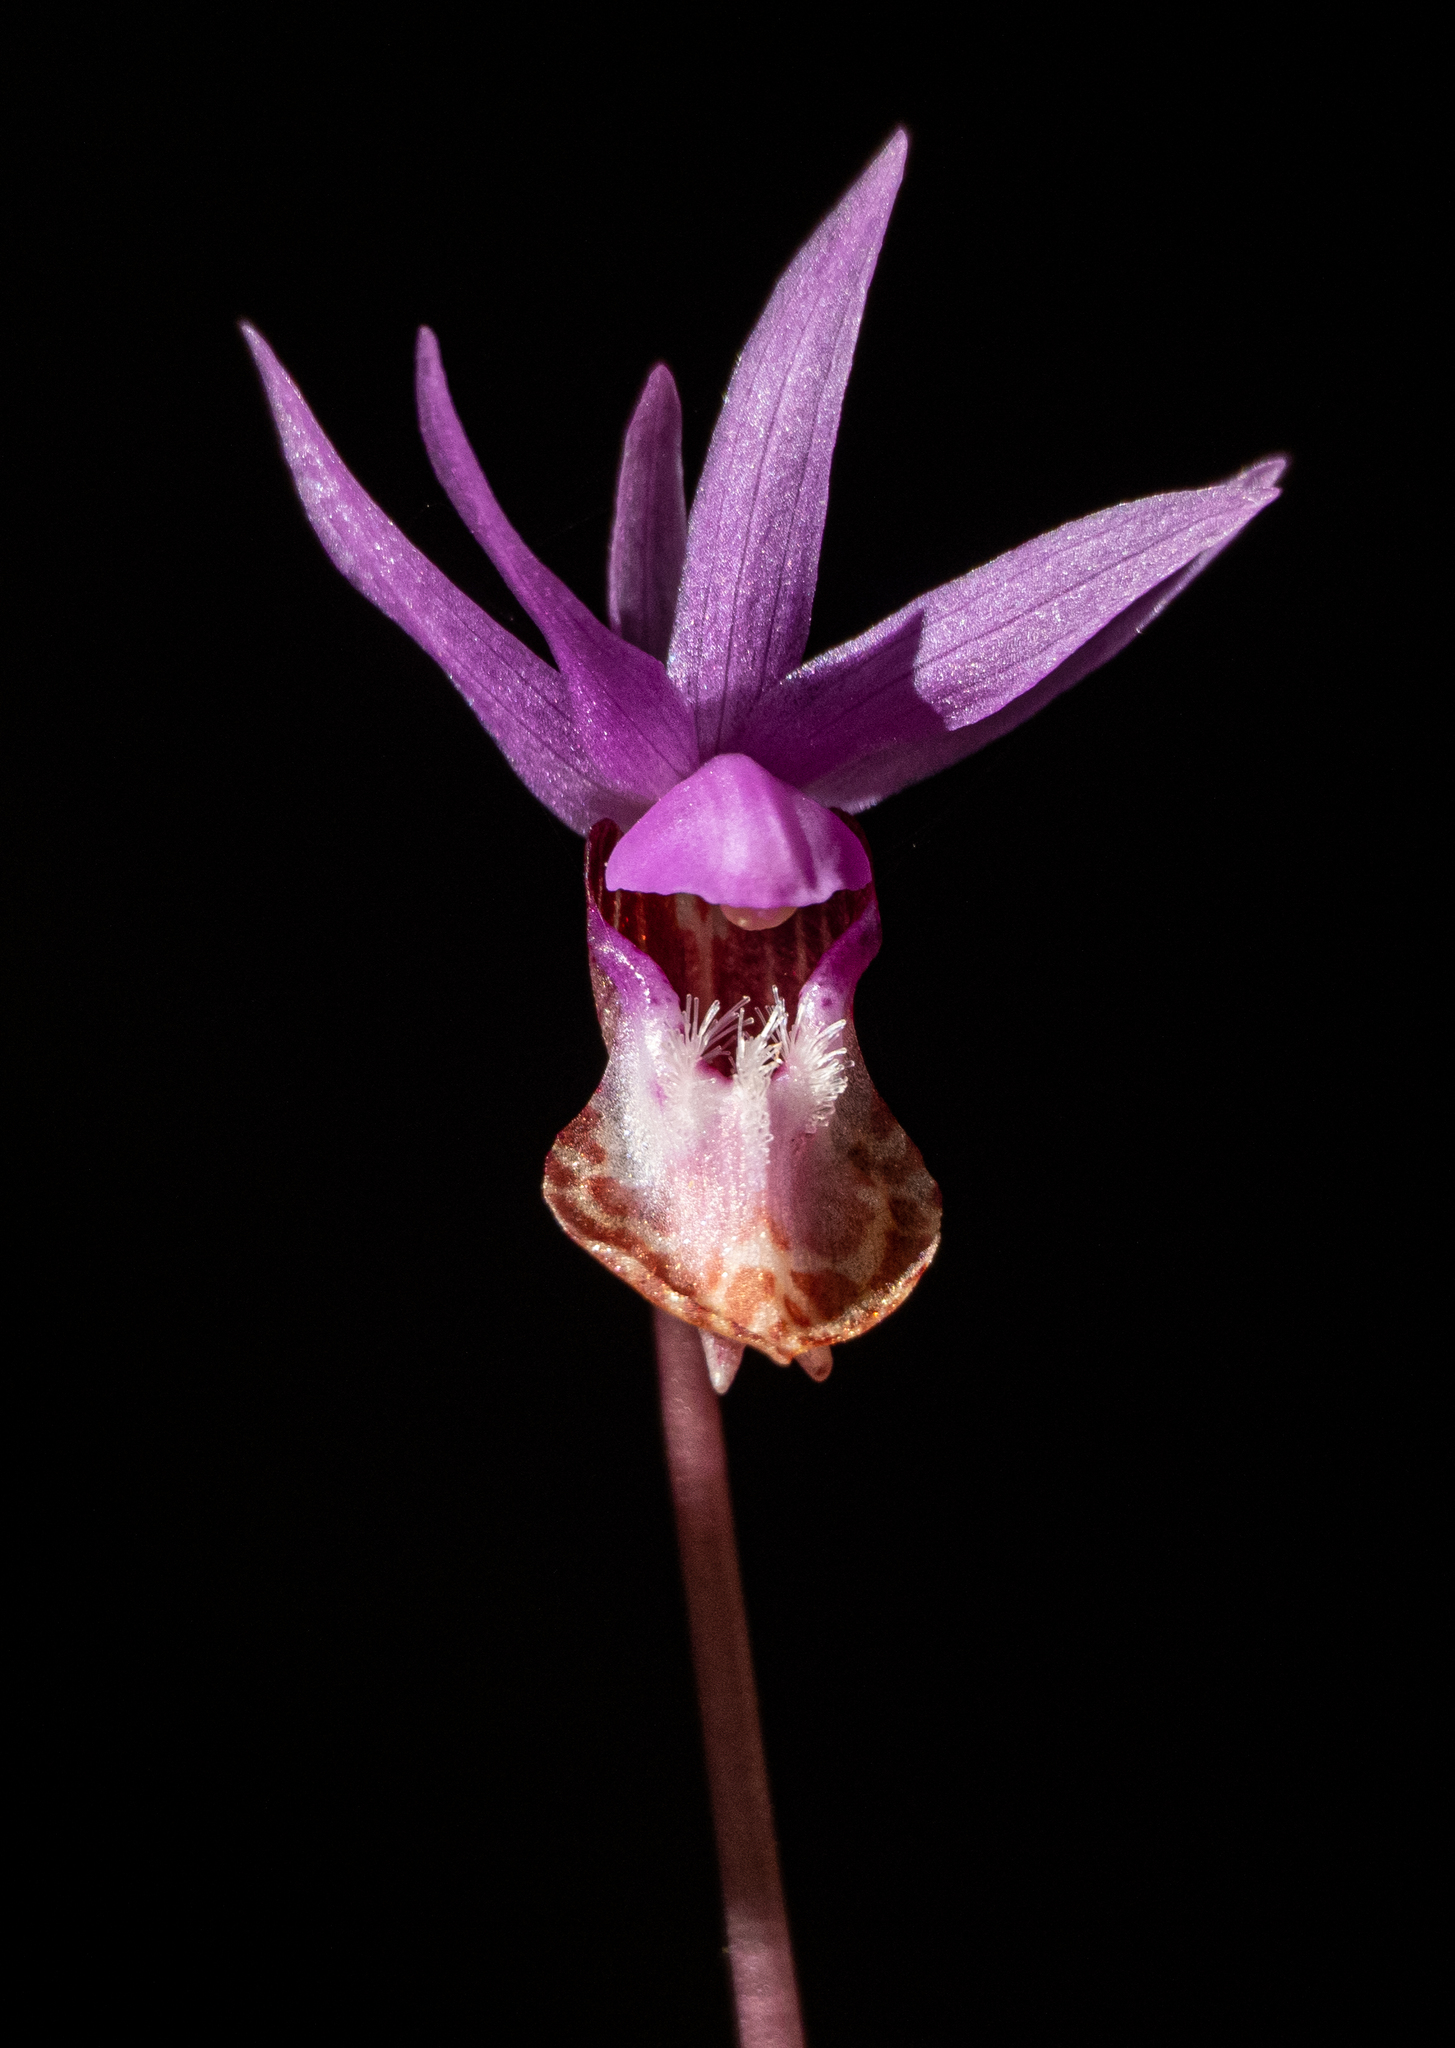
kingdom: Plantae
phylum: Tracheophyta
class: Liliopsida
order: Asparagales
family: Orchidaceae
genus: Calypso
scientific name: Calypso bulbosa
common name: Calypso
